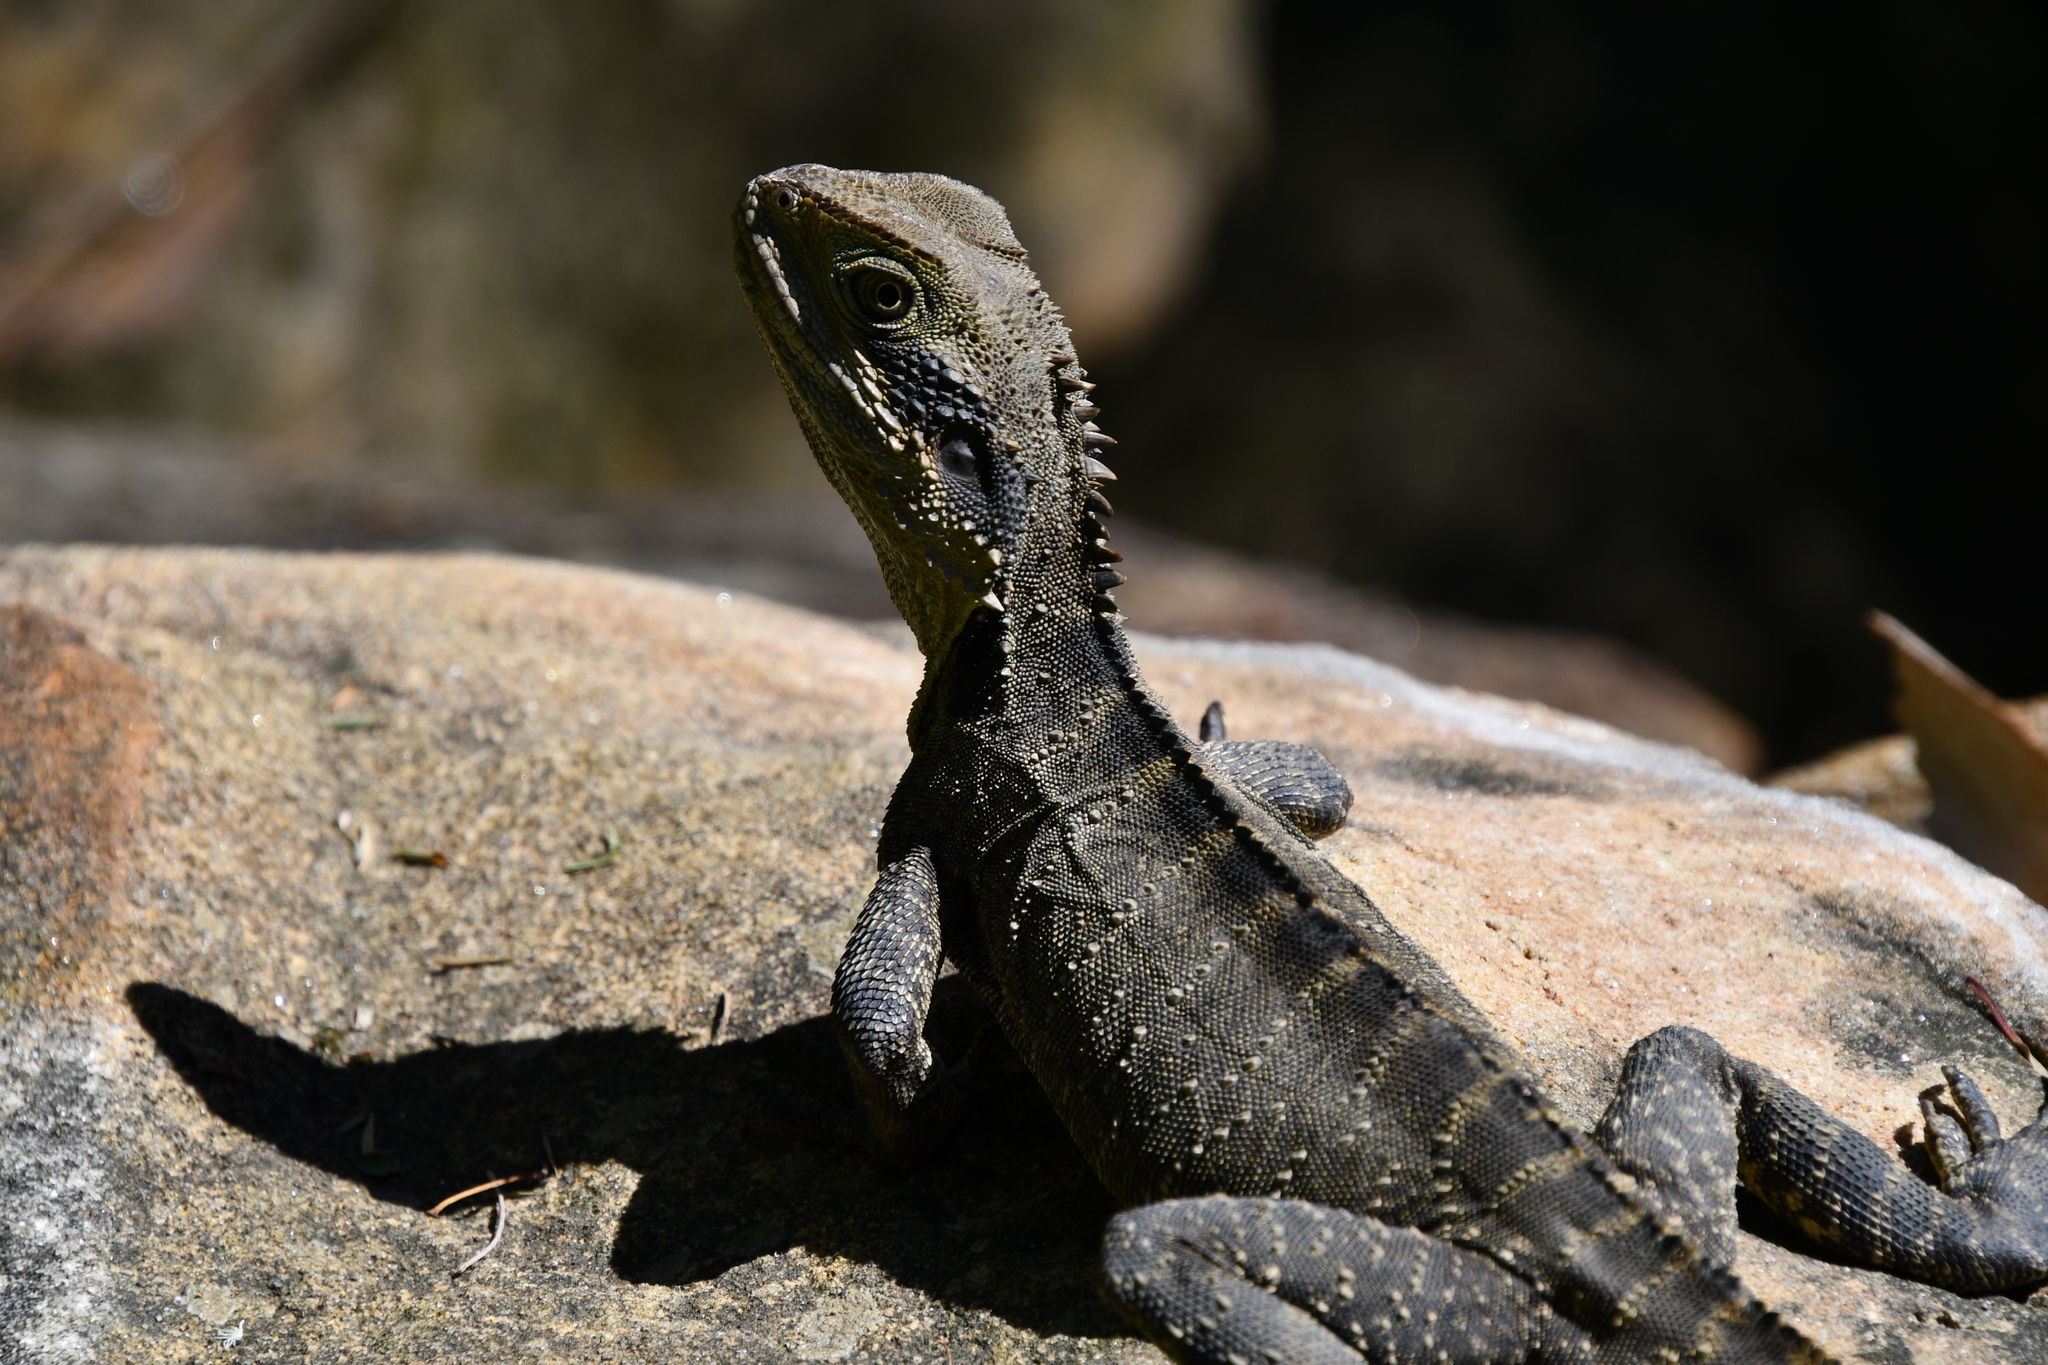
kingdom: Animalia
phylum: Chordata
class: Squamata
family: Agamidae
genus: Intellagama
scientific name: Intellagama lesueurii
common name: Eastern water dragon
